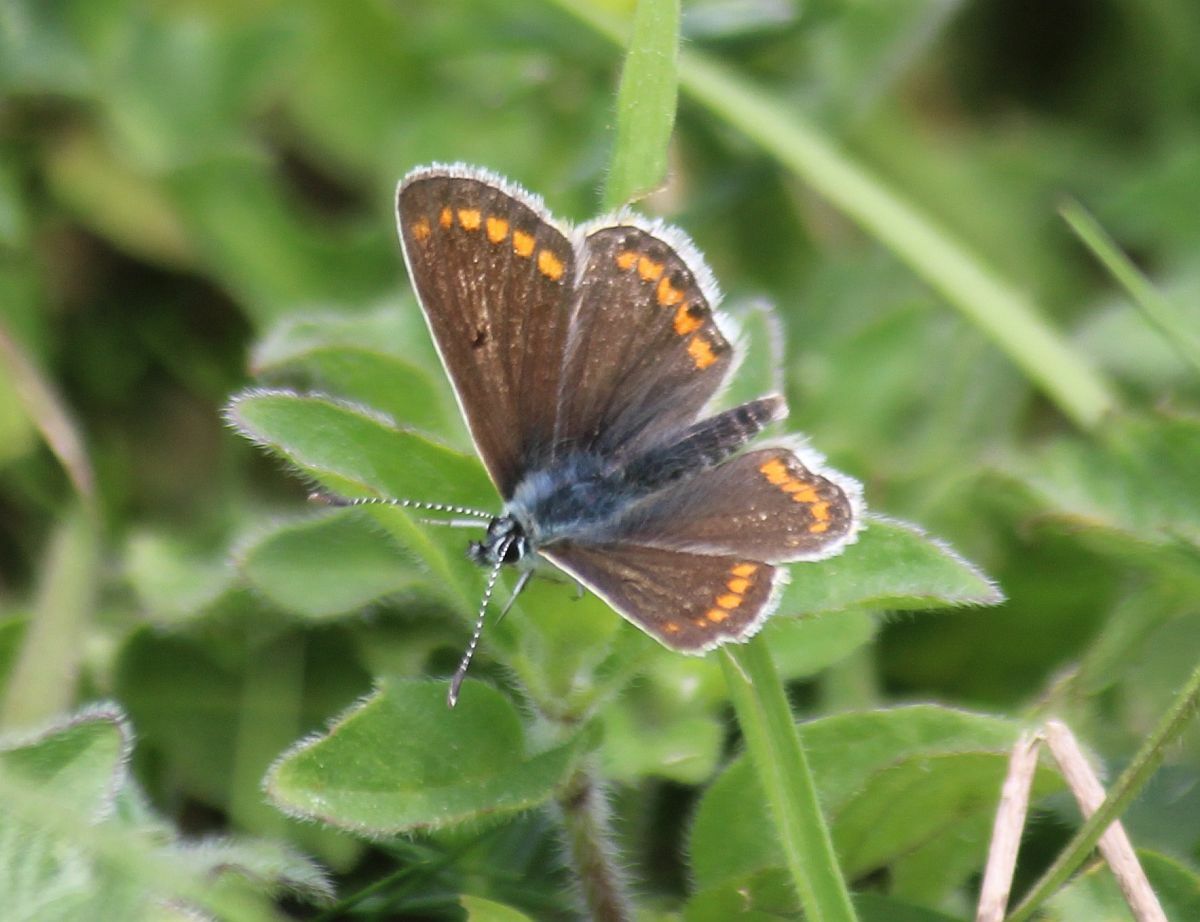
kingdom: Animalia
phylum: Arthropoda
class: Insecta
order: Lepidoptera
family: Lycaenidae
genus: Aricia
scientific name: Aricia agestis
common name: Brown argus
